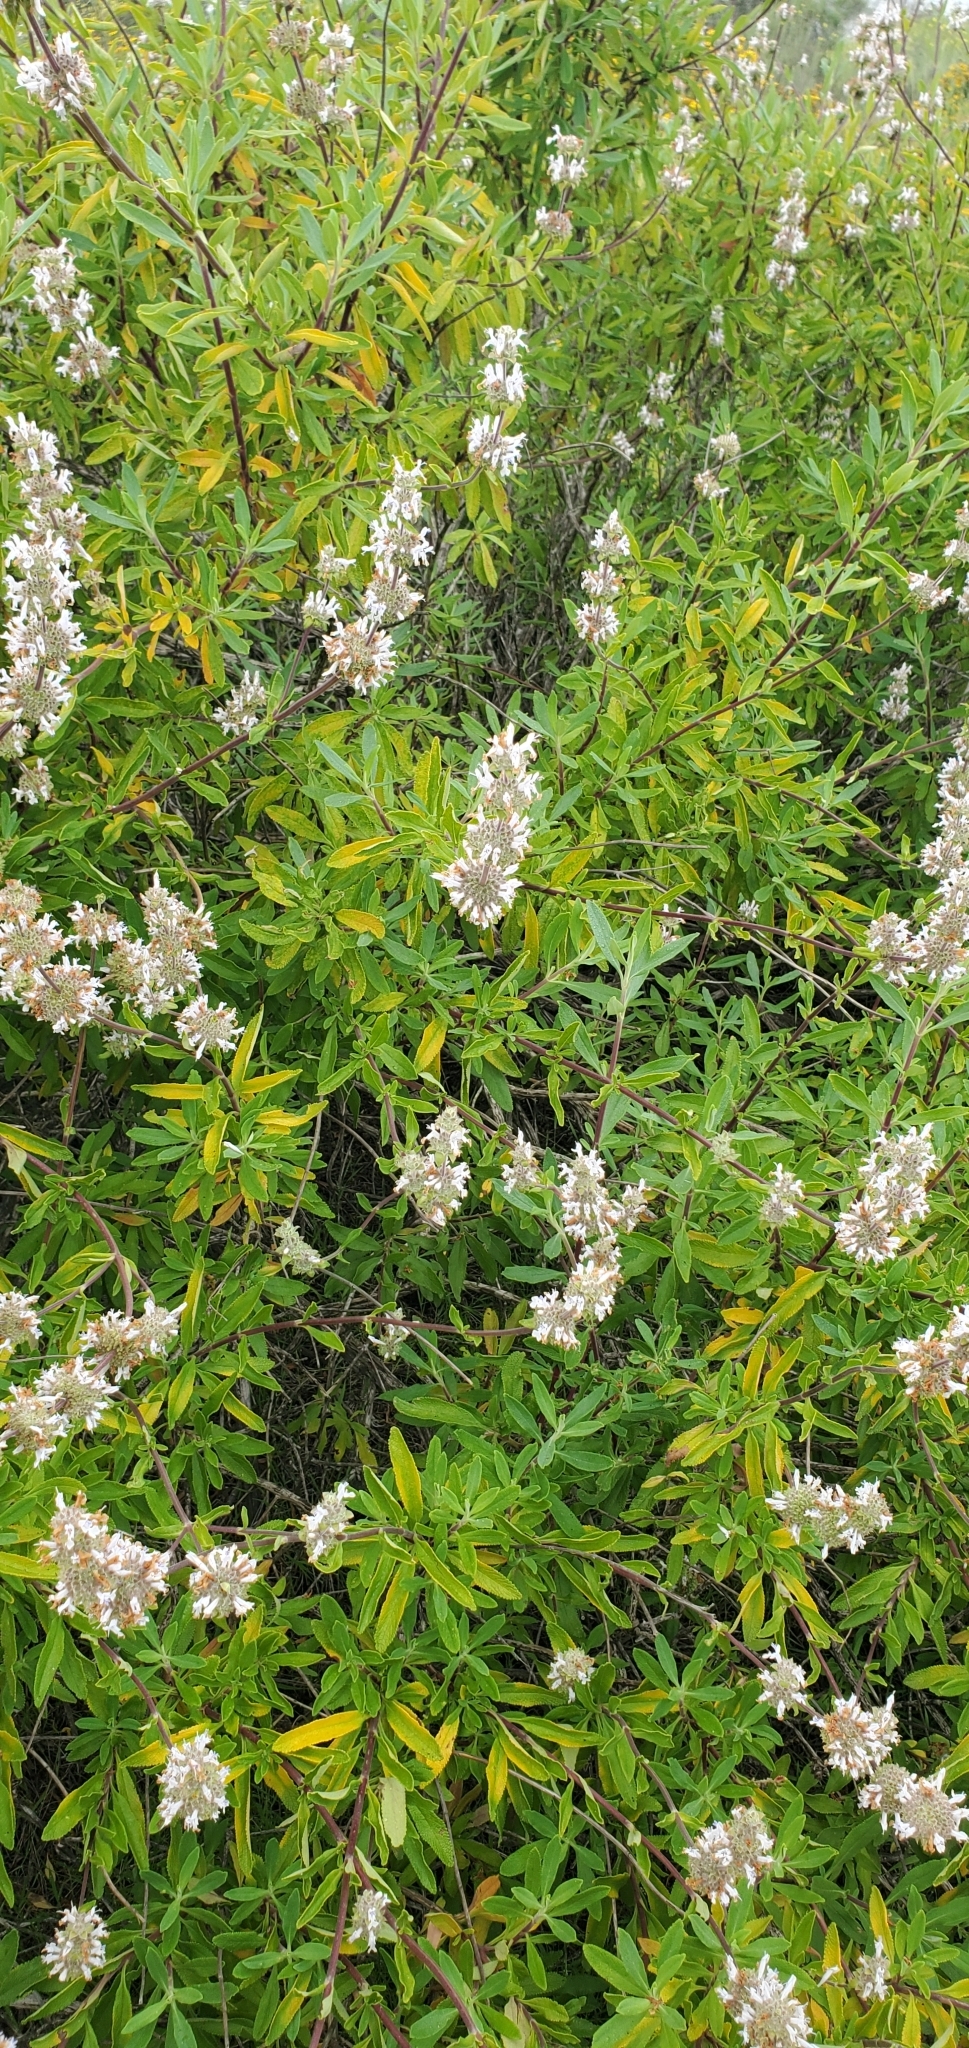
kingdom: Plantae
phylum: Tracheophyta
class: Magnoliopsida
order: Lamiales
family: Lamiaceae
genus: Salvia
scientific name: Salvia mellifera
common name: Black sage
